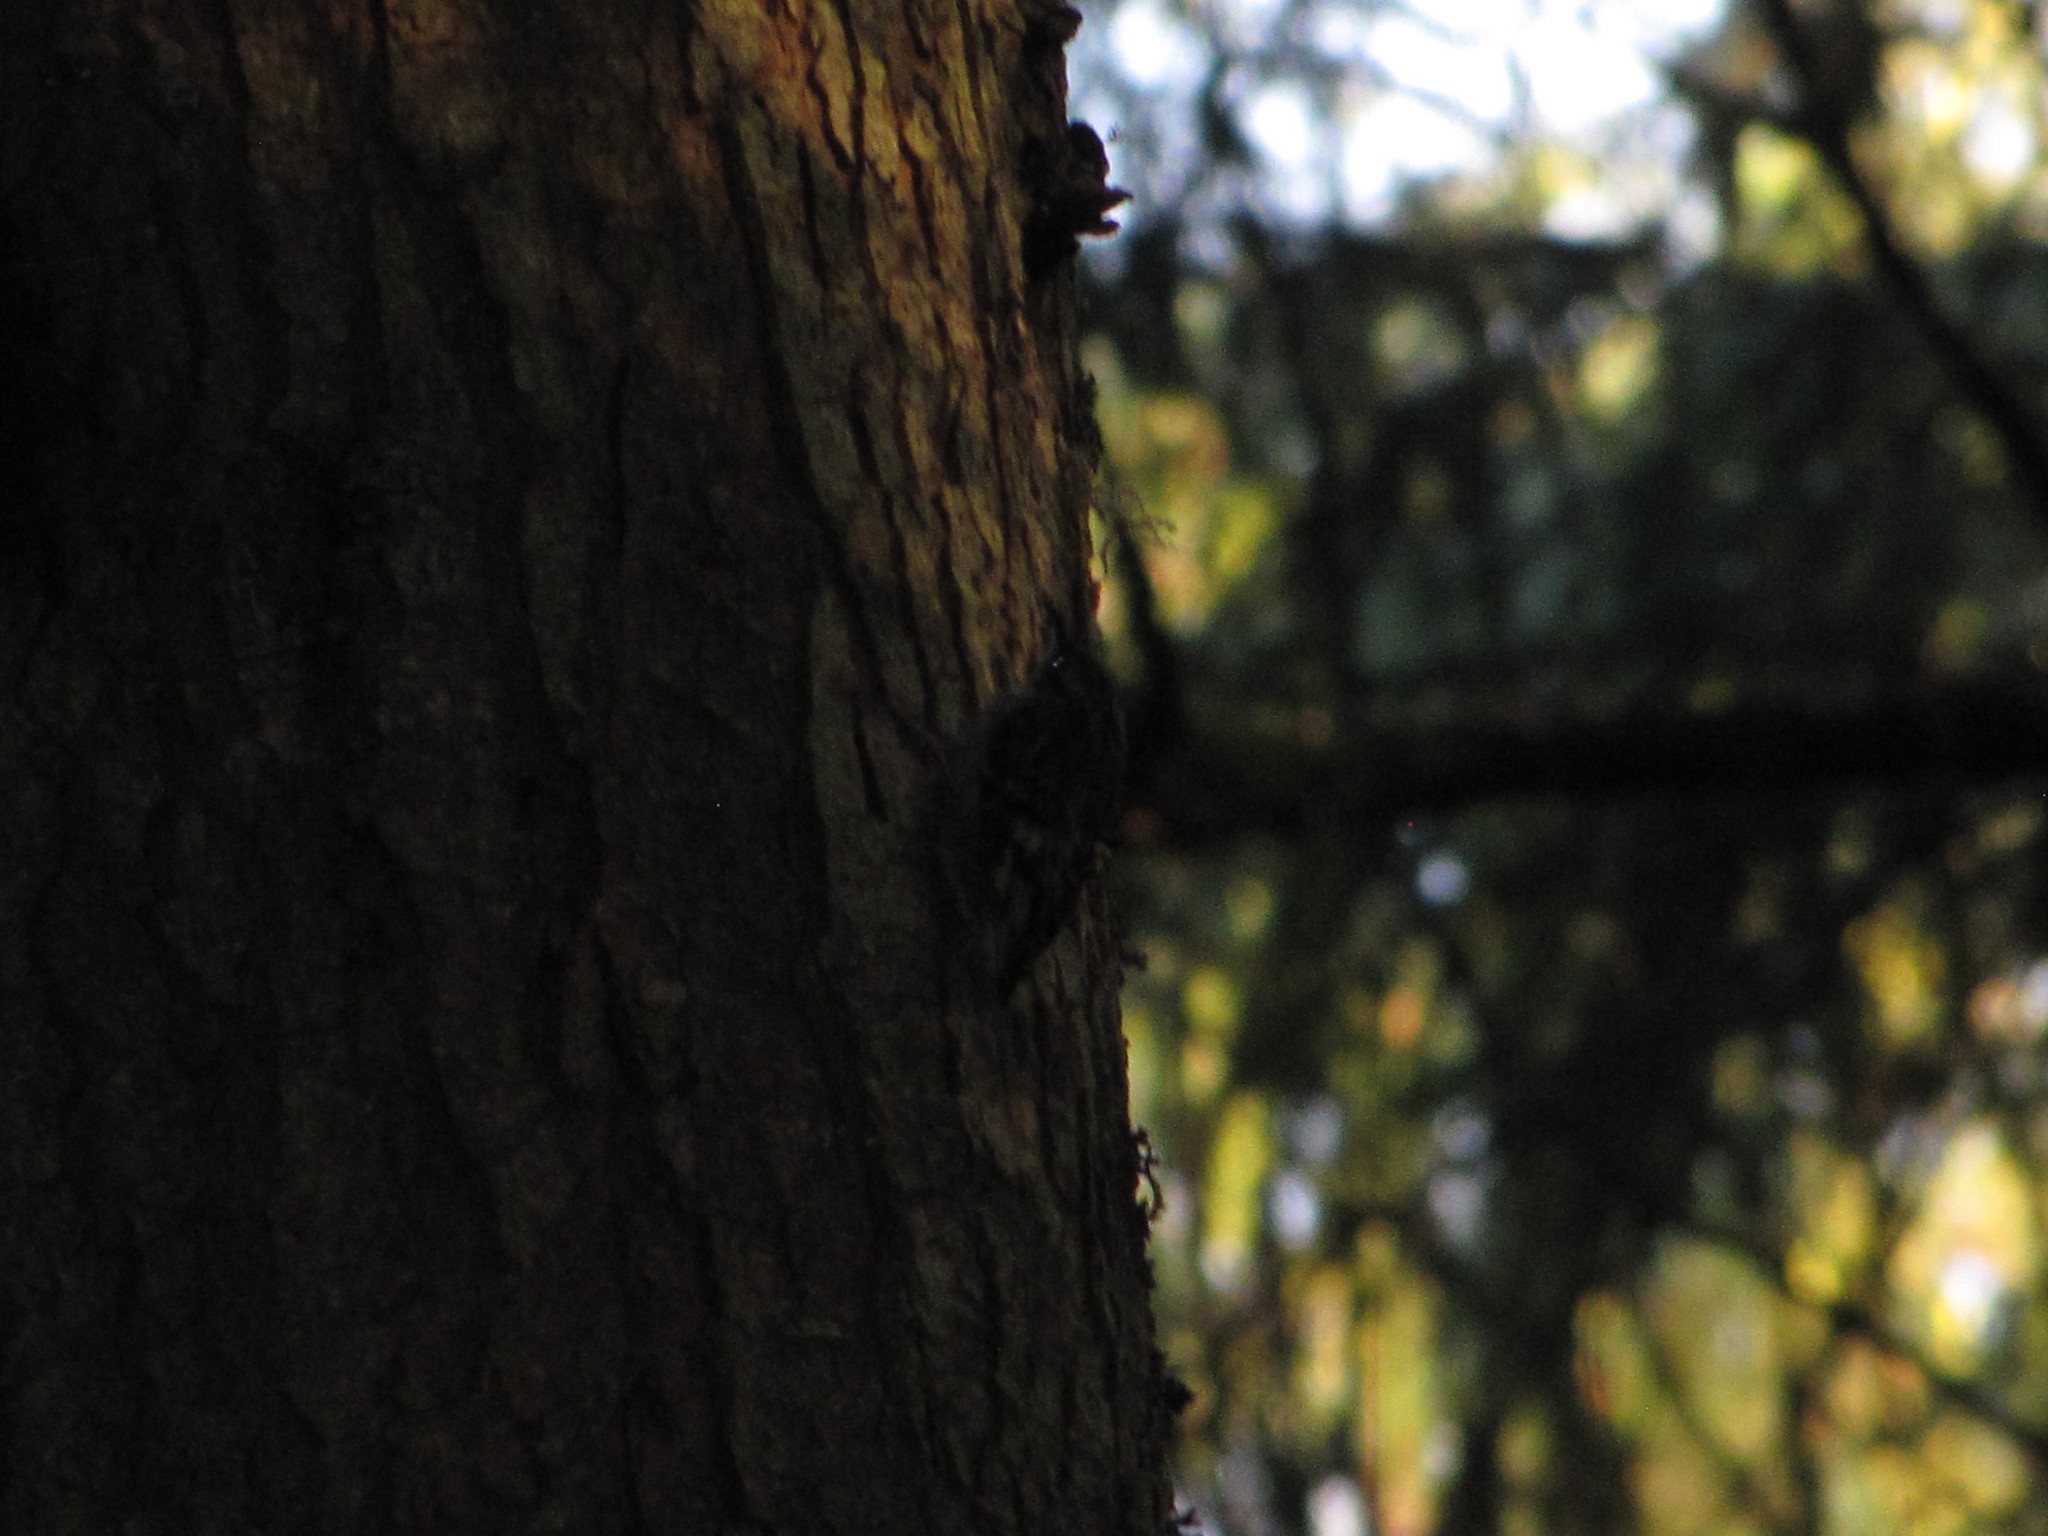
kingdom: Animalia
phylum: Chordata
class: Aves
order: Passeriformes
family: Certhiidae
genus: Certhia
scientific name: Certhia americana
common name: Brown creeper
